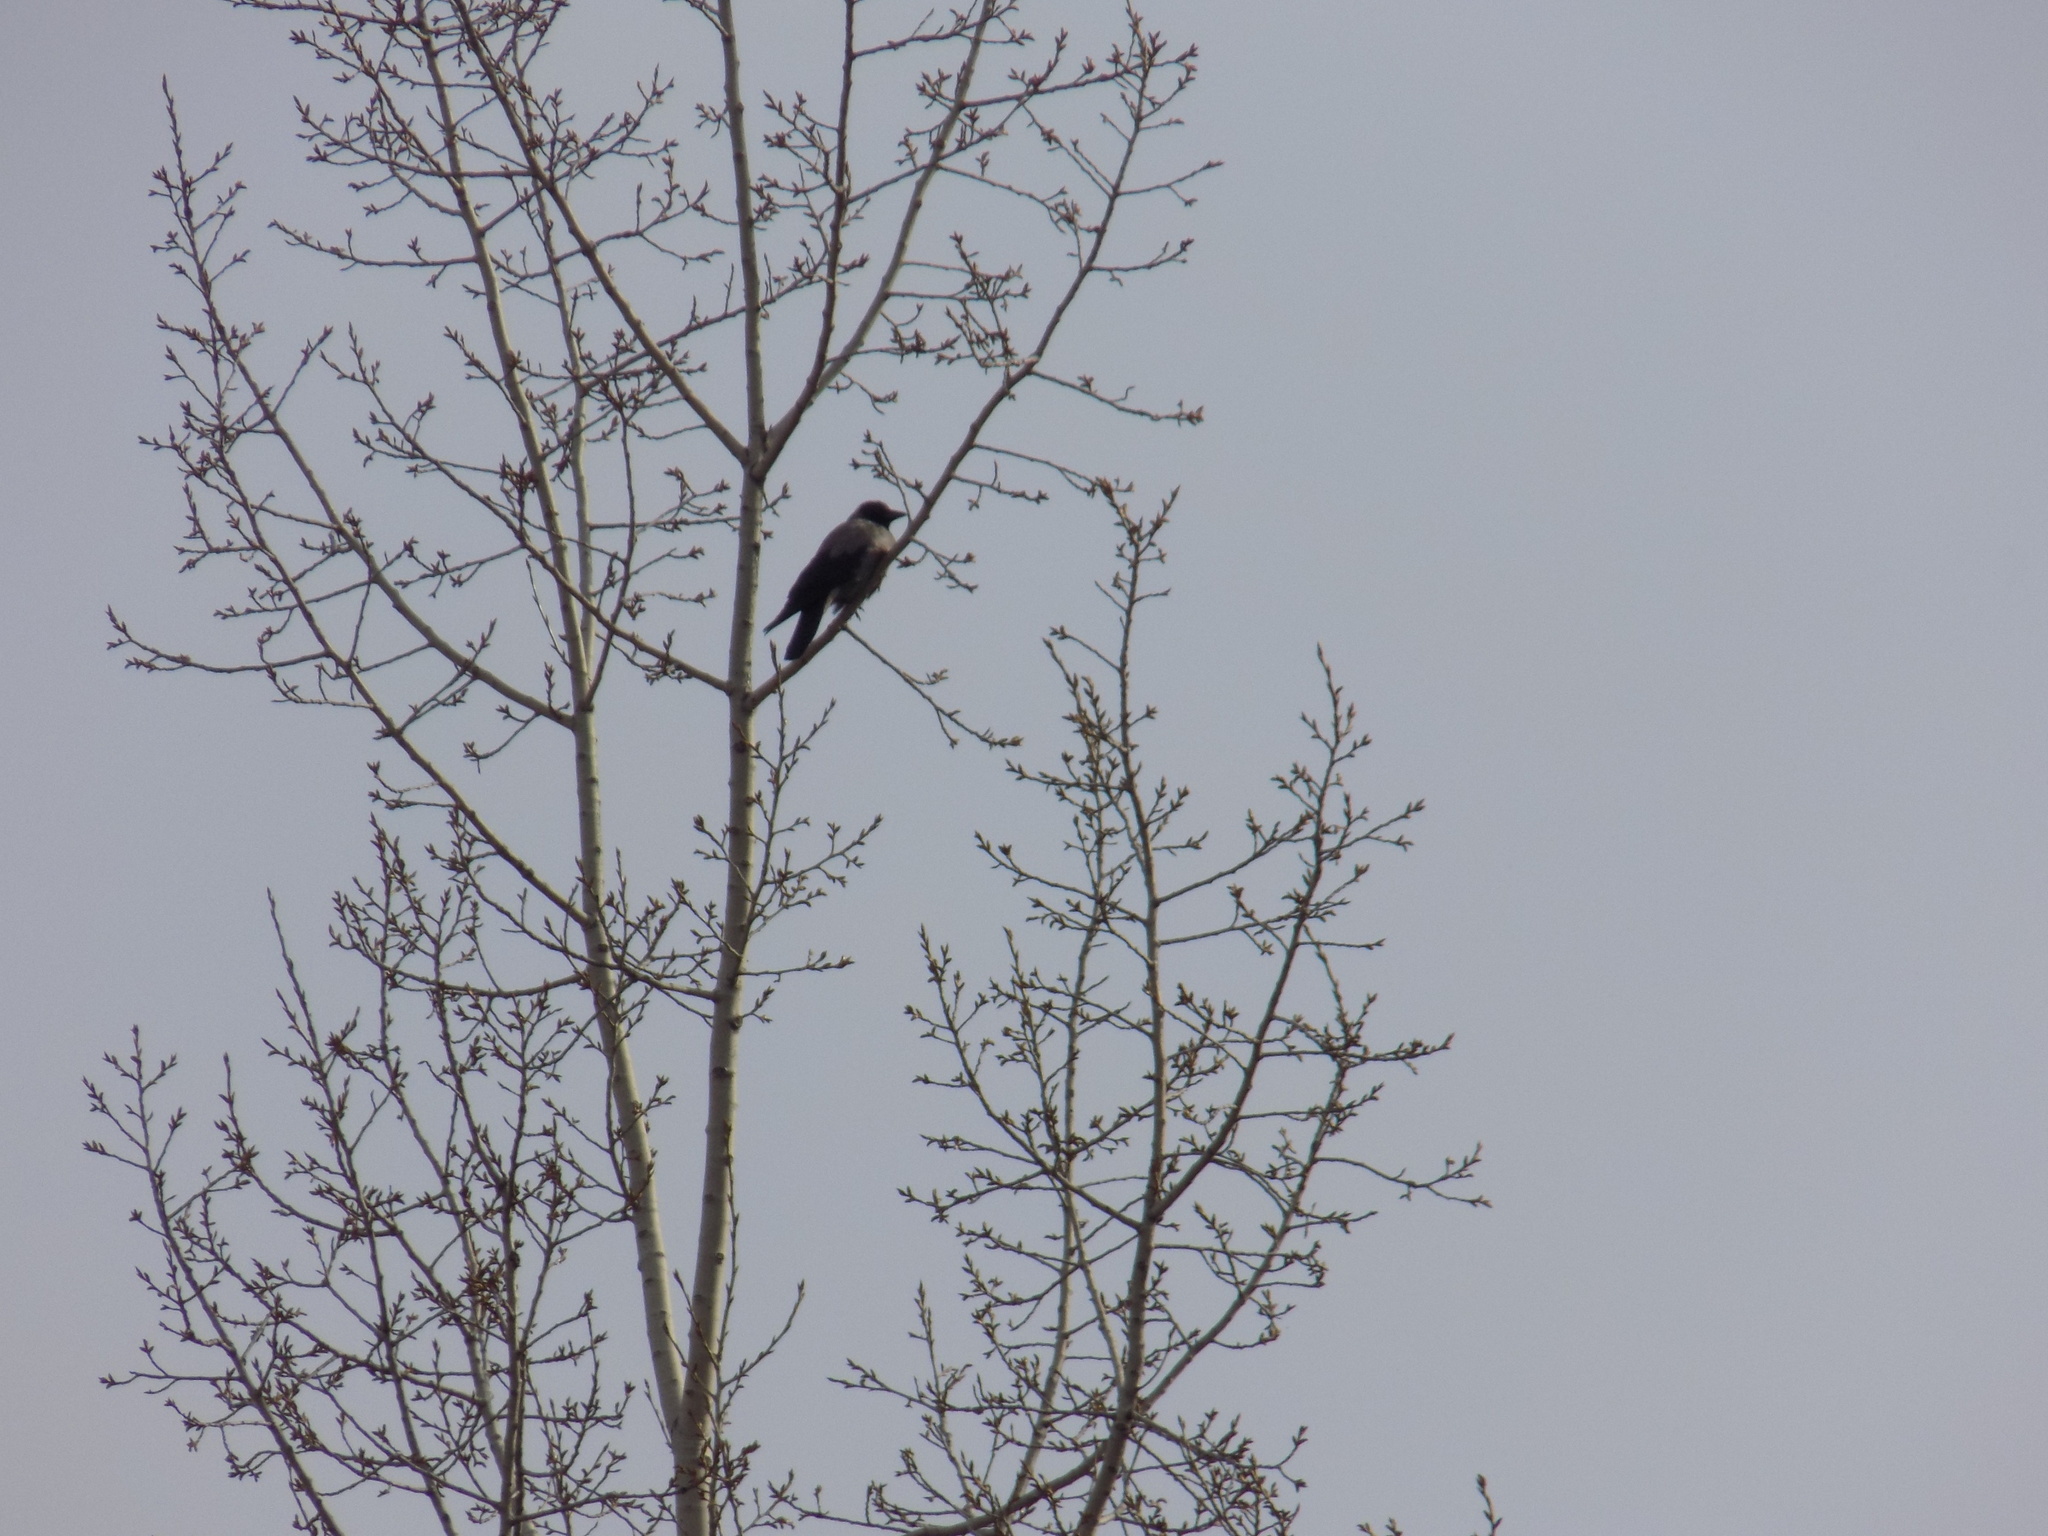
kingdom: Animalia
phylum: Chordata
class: Aves
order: Passeriformes
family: Corvidae
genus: Corvus
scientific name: Corvus cornix
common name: Hooded crow
